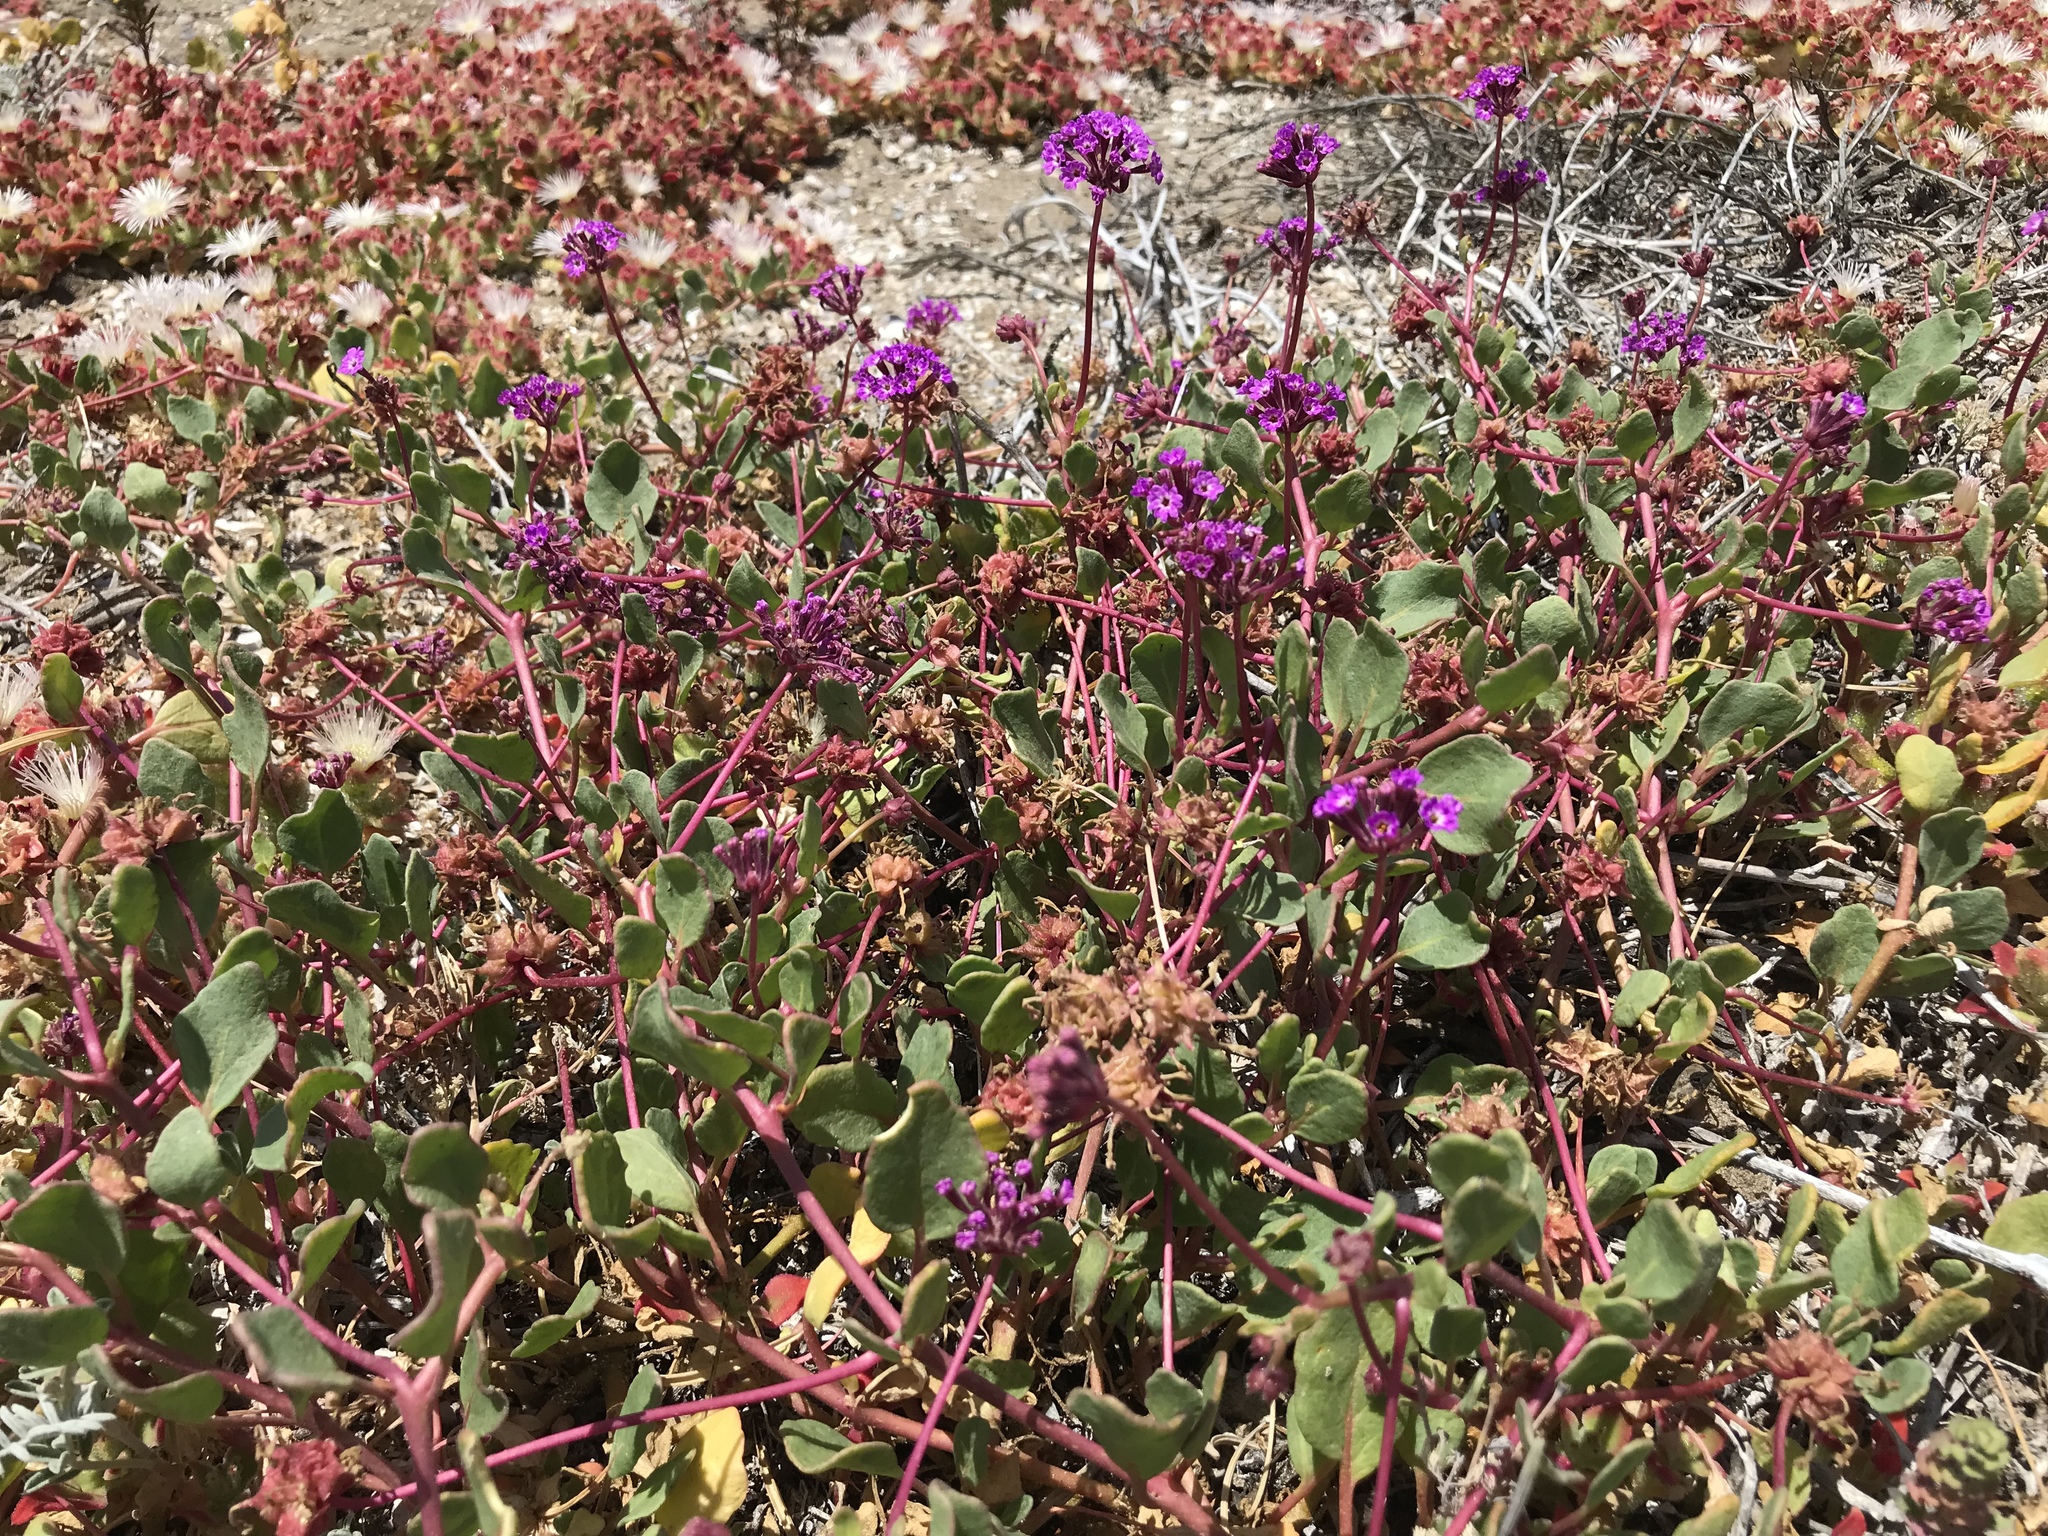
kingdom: Plantae
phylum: Tracheophyta
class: Magnoliopsida
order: Caryophyllales
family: Nyctaginaceae
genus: Abronia
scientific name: Abronia umbellata
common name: Sand-verbena
